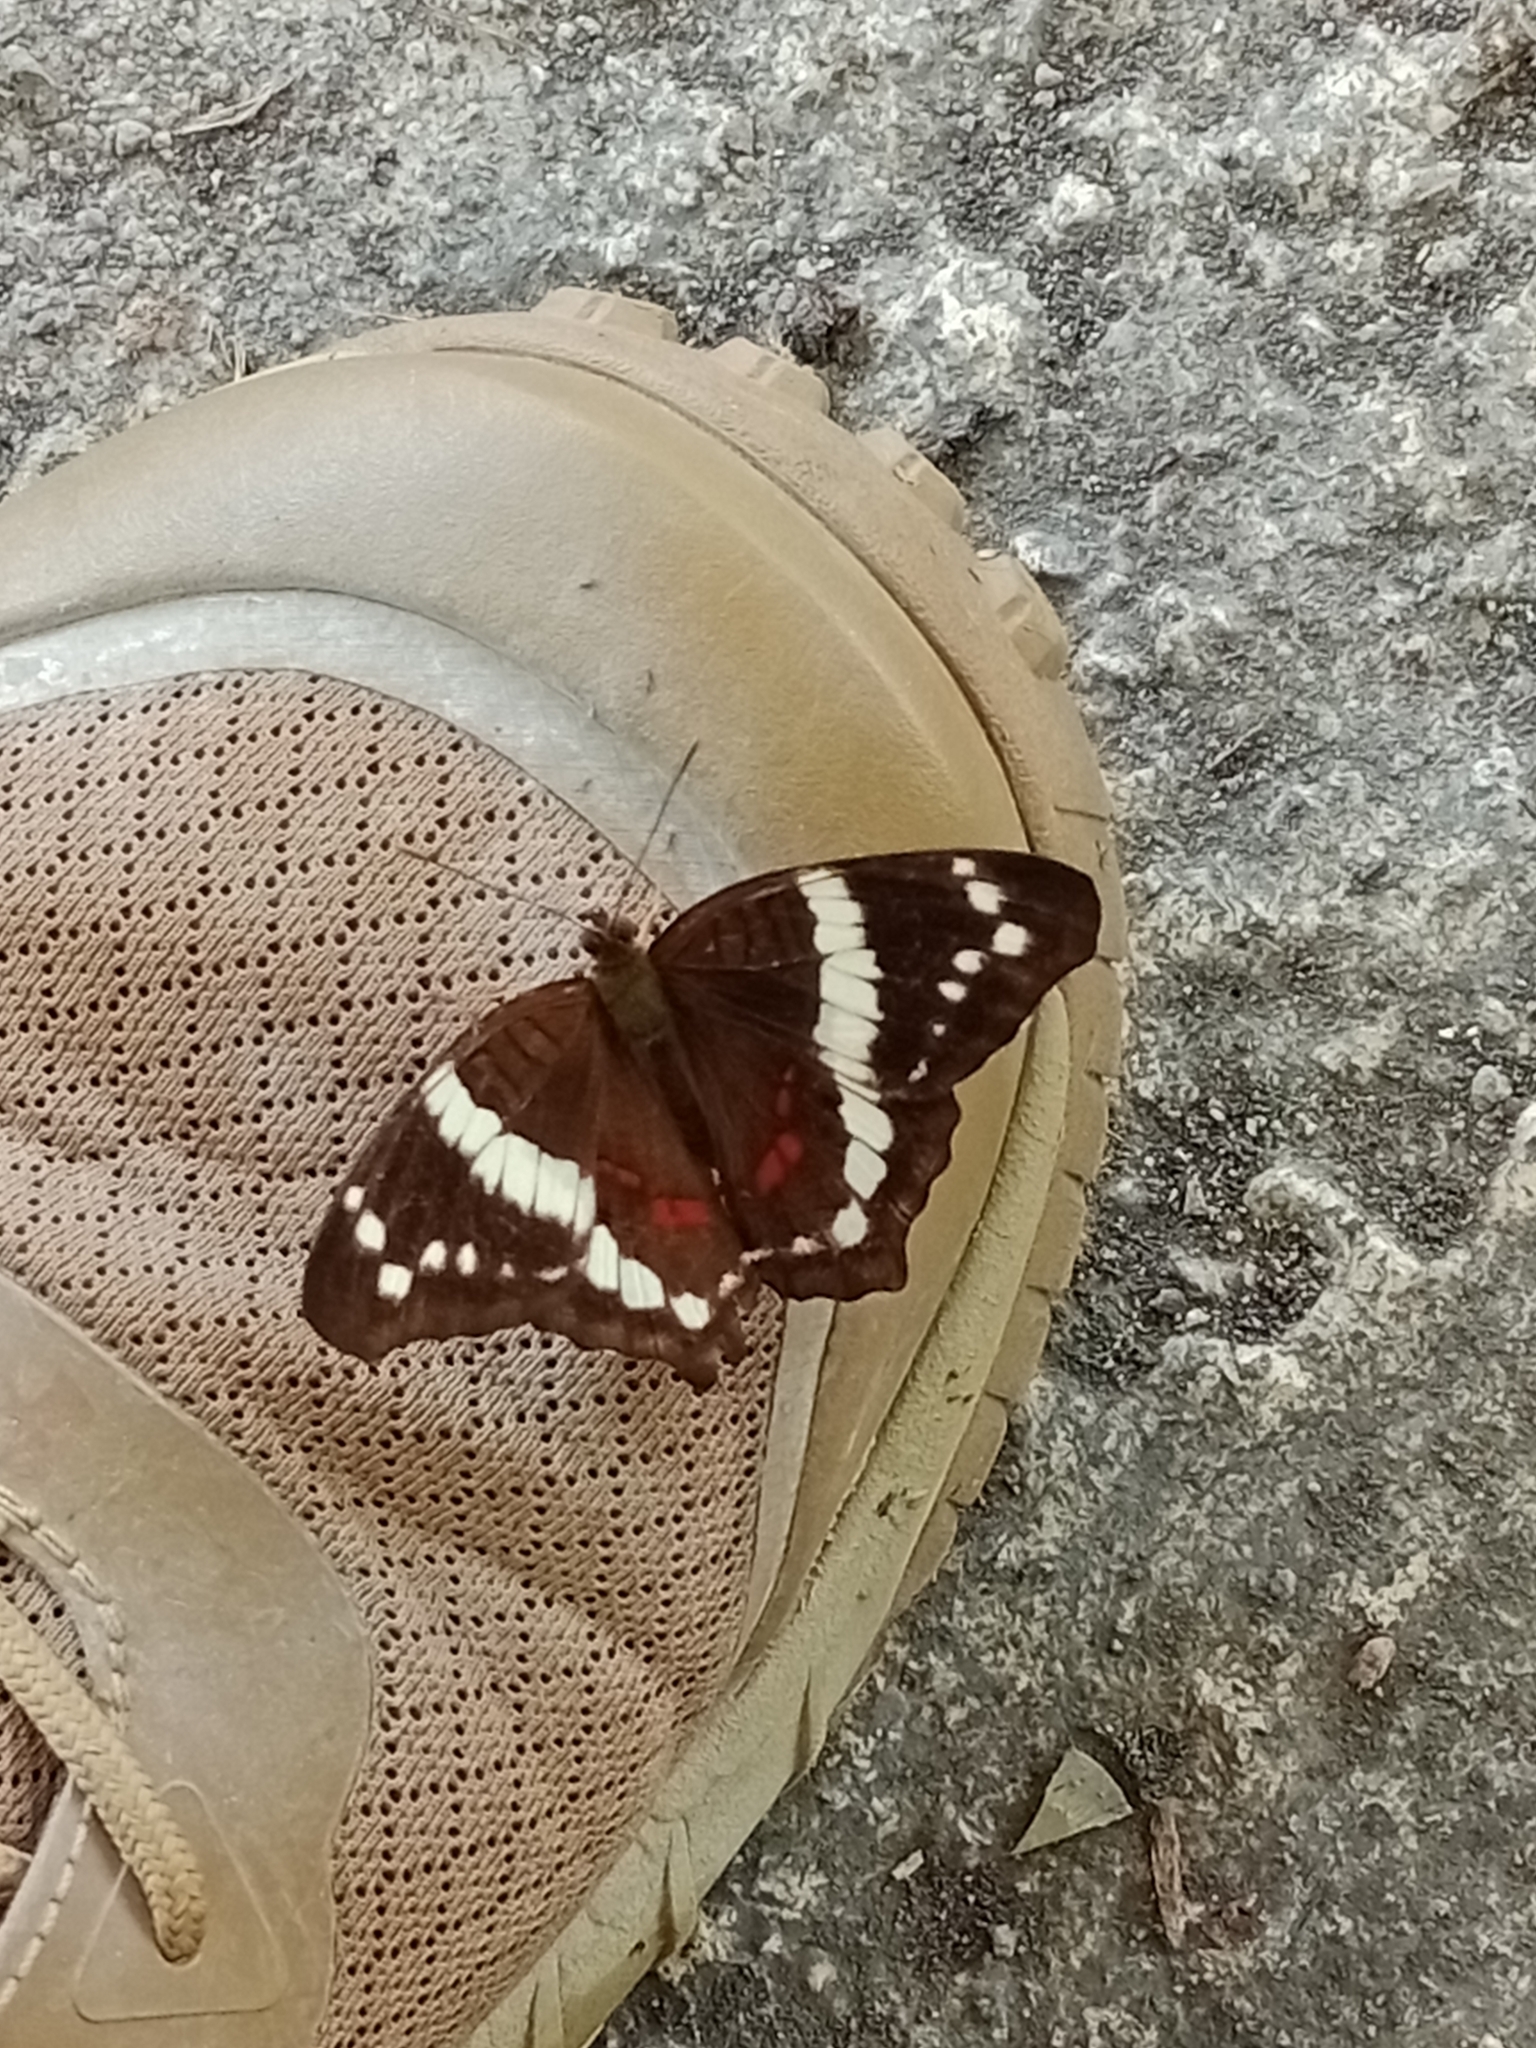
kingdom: Animalia
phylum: Arthropoda
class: Insecta
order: Lepidoptera
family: Nymphalidae
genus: Anartia
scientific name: Anartia fatima
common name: Banded peacock
